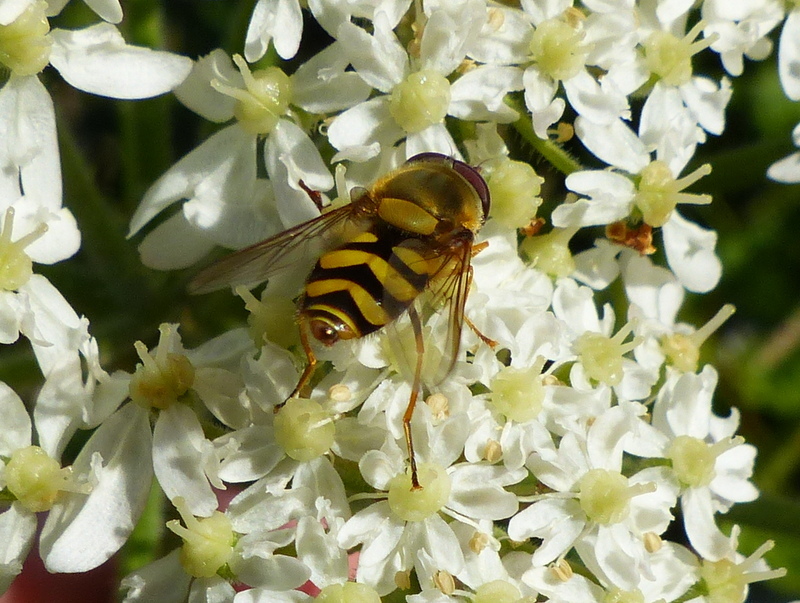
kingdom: Animalia
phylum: Arthropoda
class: Insecta
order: Diptera
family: Syrphidae
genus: Syrphus
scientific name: Syrphus
